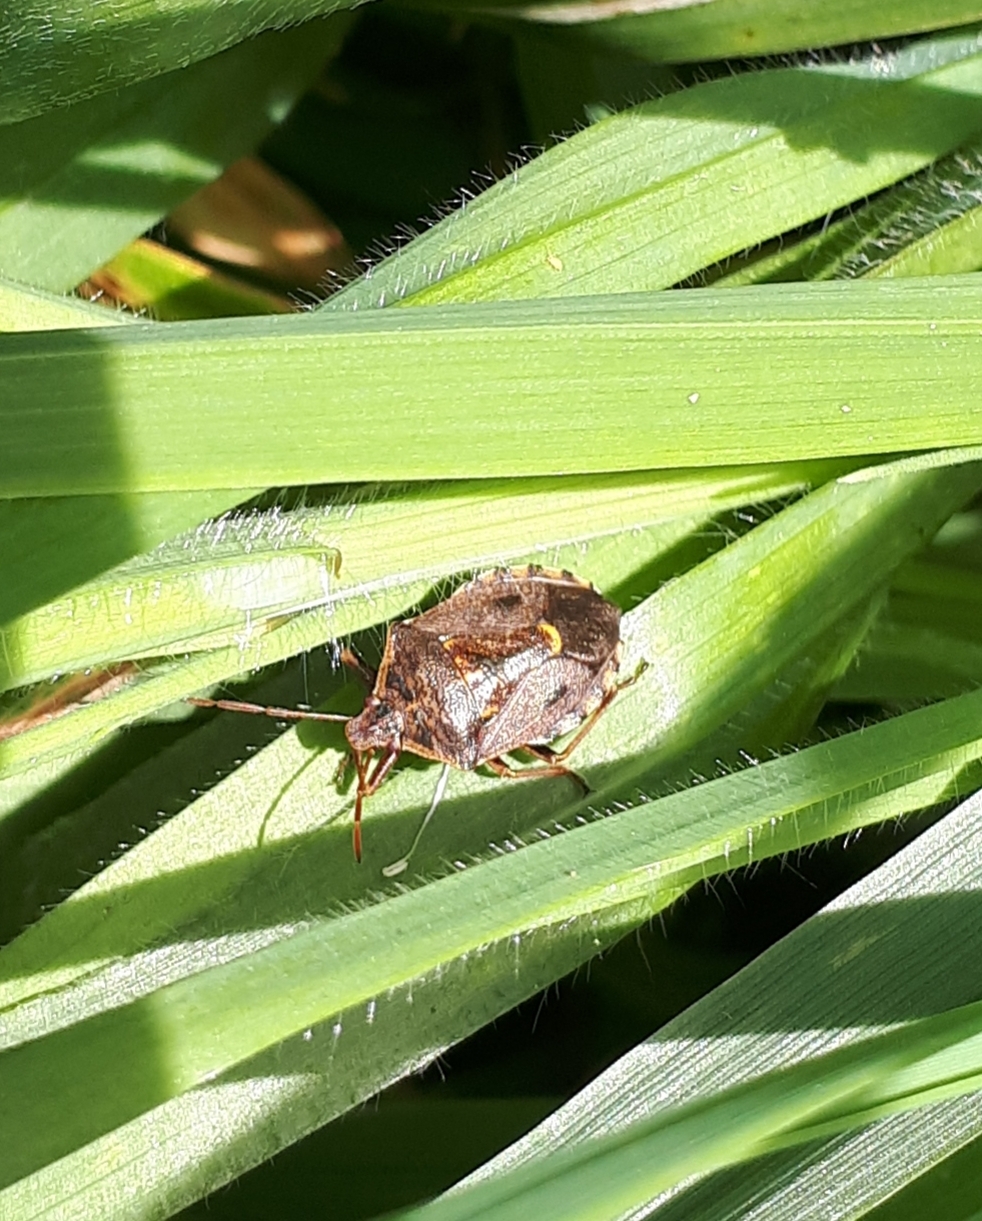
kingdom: Animalia
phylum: Arthropoda
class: Insecta
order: Hemiptera
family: Pentatomidae
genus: Cermatulus
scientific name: Cermatulus nasalis
